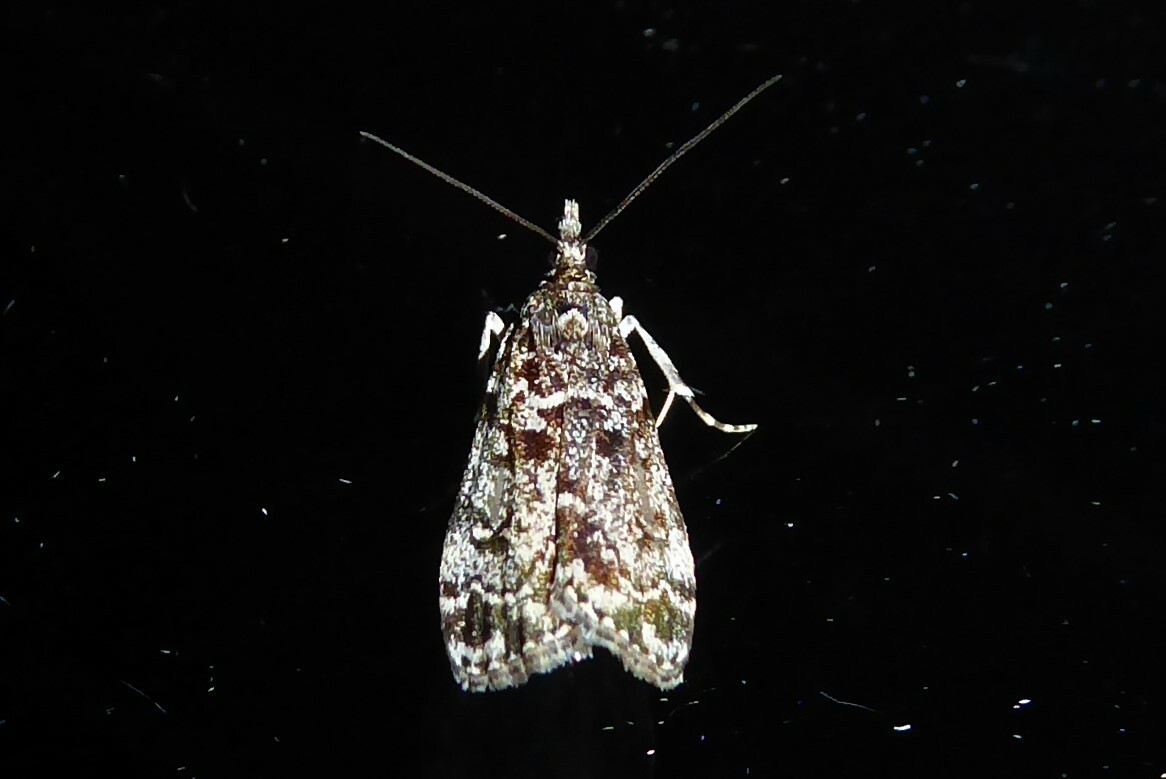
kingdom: Animalia
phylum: Arthropoda
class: Insecta
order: Lepidoptera
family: Crambidae
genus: Eudonia
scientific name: Eudonia philerga
